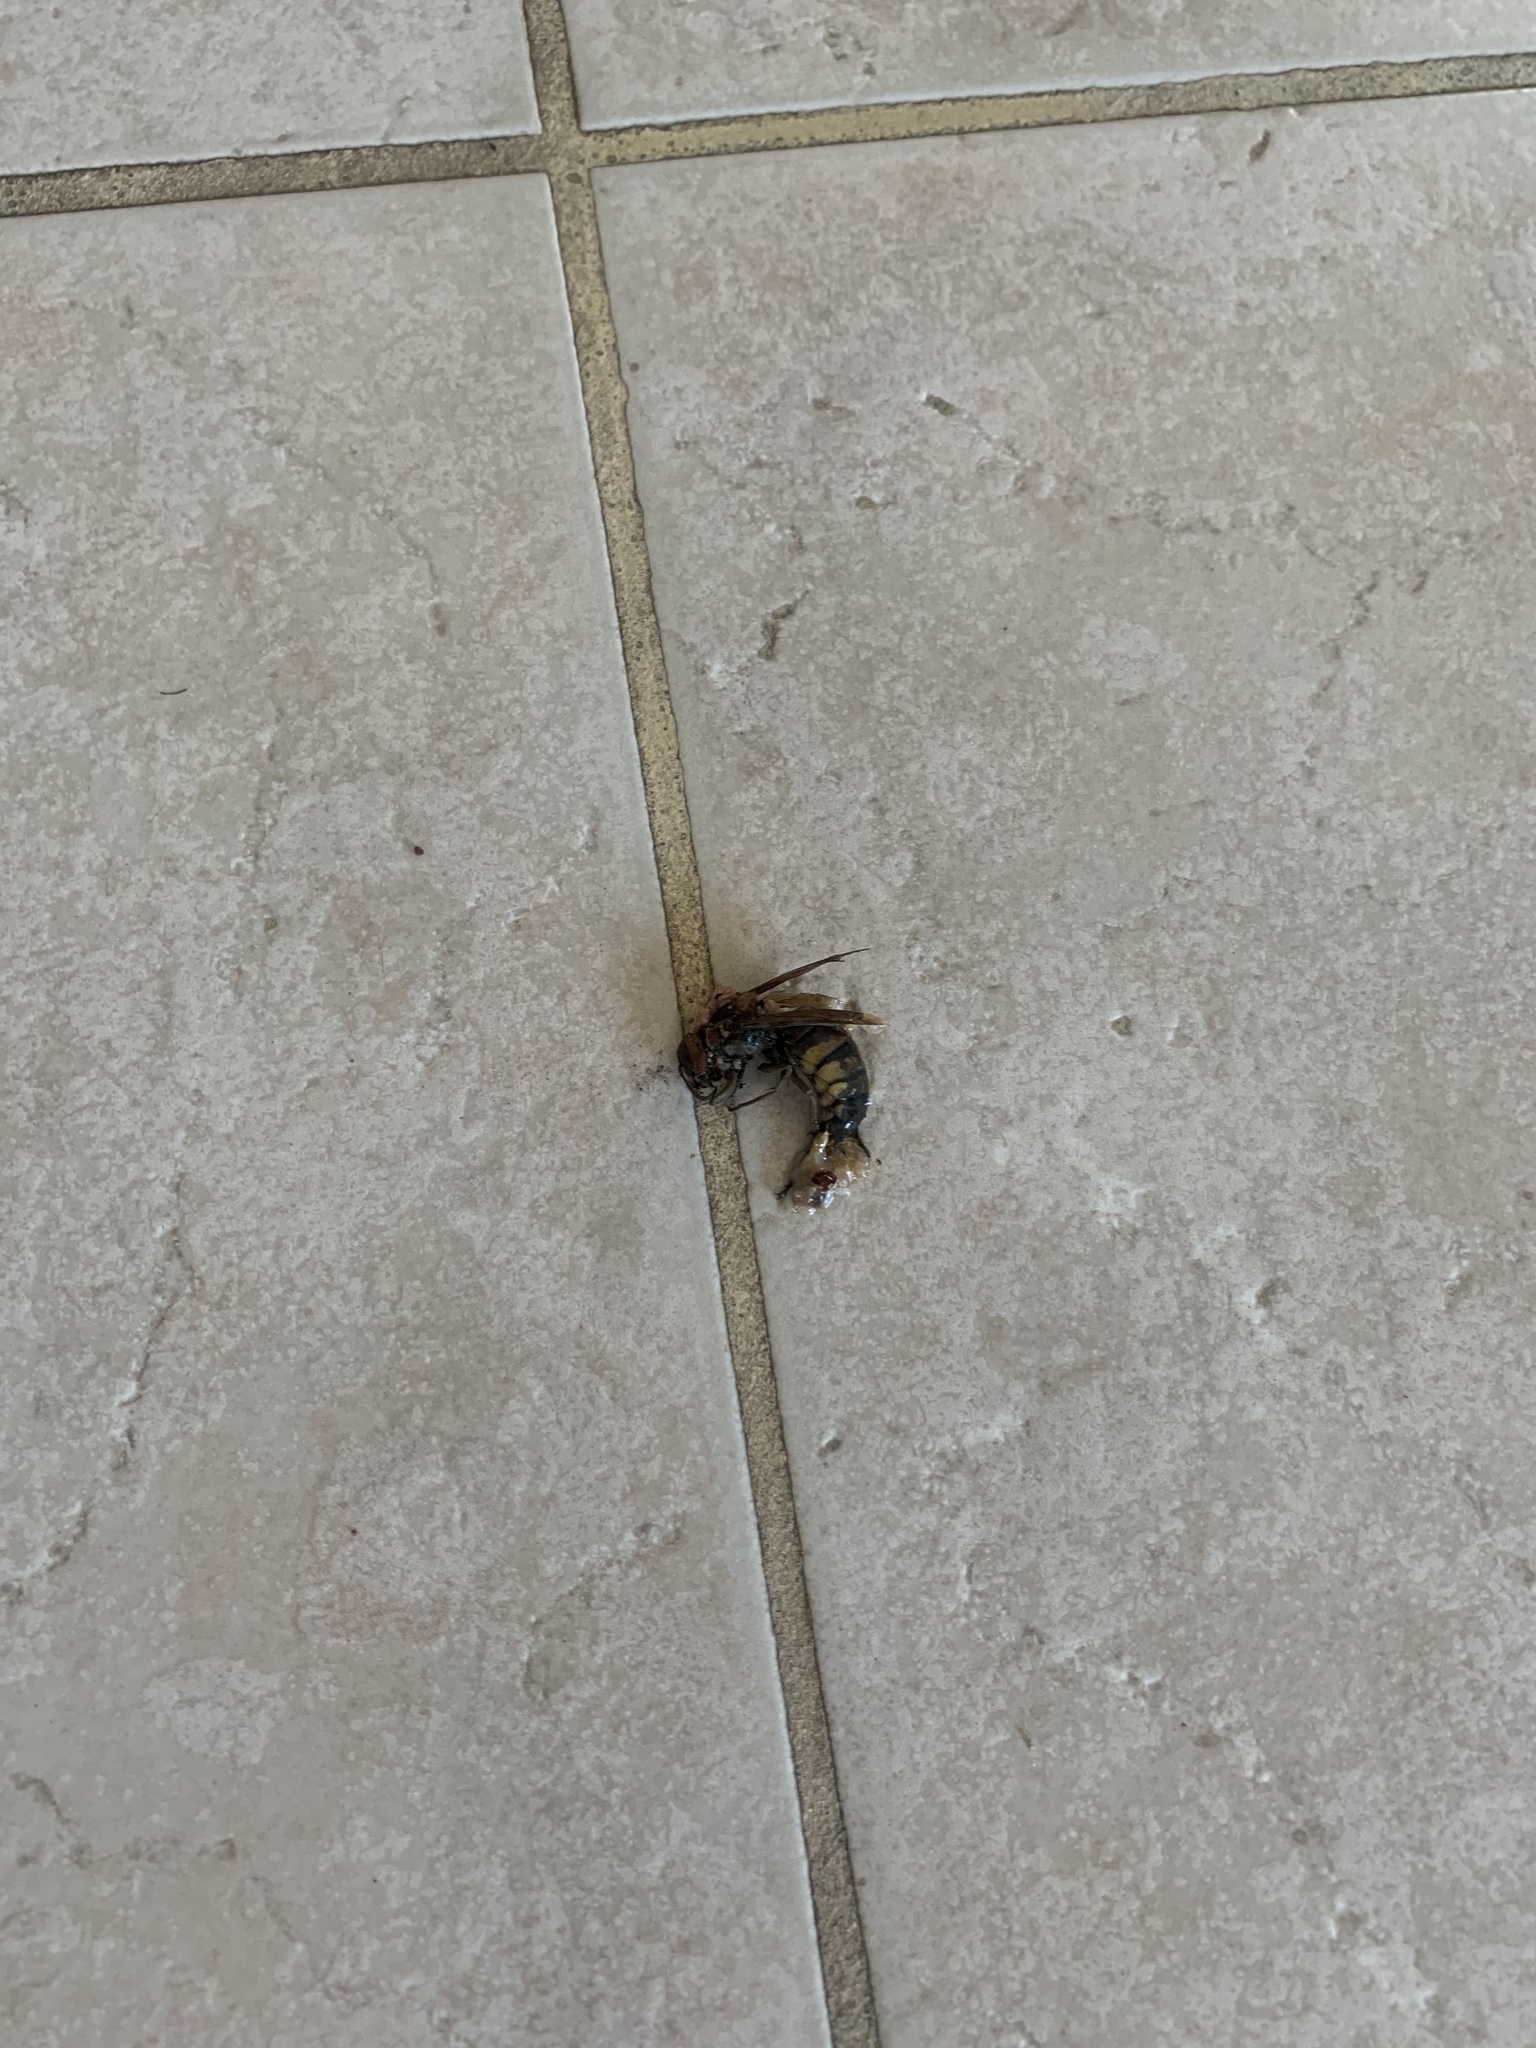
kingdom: Animalia
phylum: Arthropoda
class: Insecta
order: Hymenoptera
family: Vespidae
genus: Vespa
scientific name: Vespa crabro
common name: Hornet
